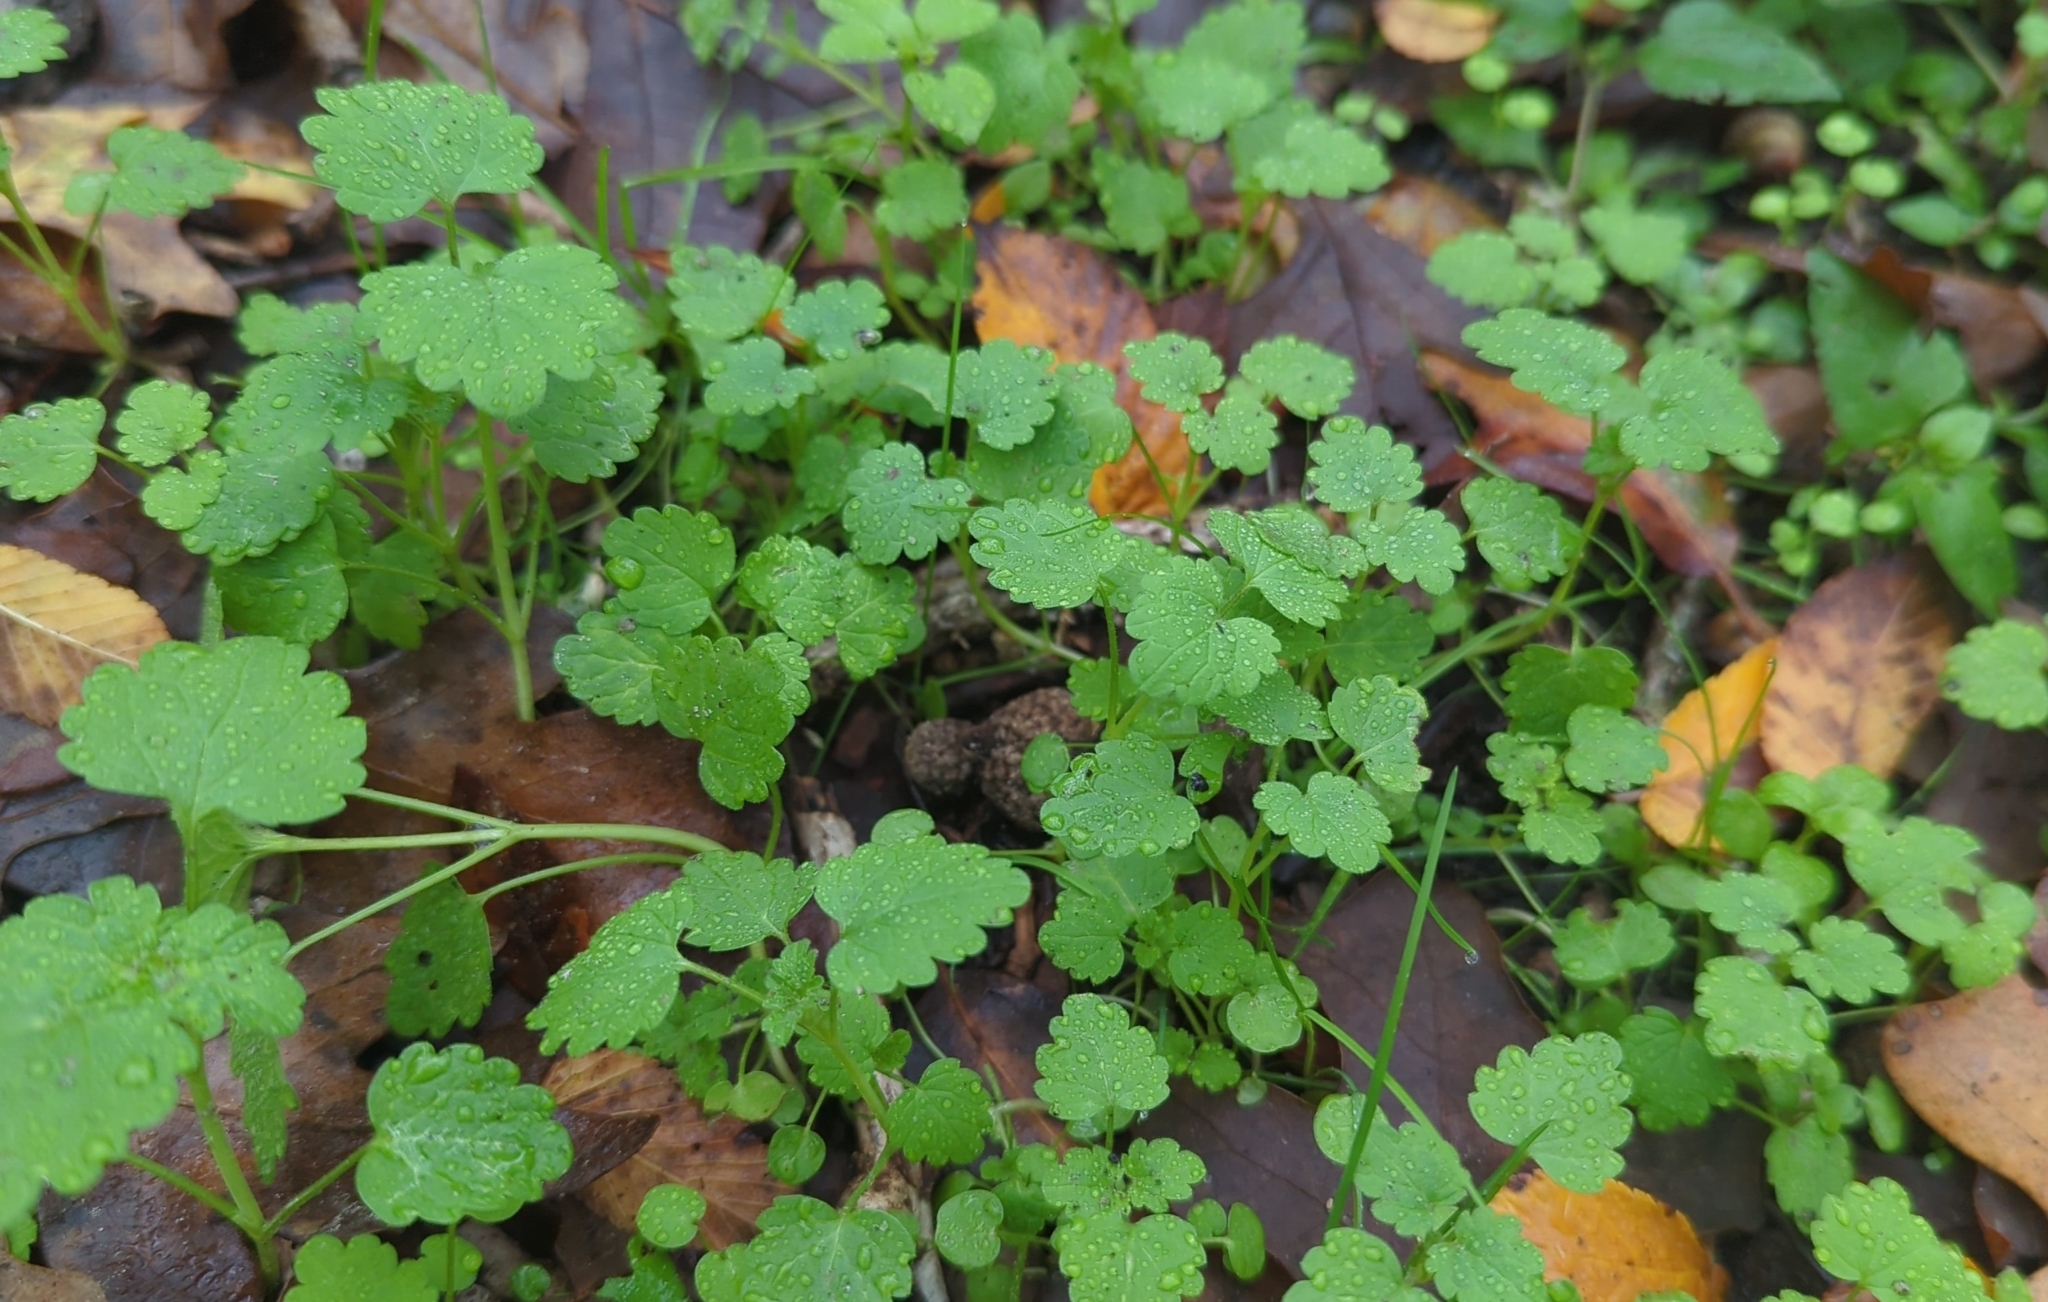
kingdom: Plantae
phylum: Tracheophyta
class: Magnoliopsida
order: Lamiales
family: Lamiaceae
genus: Lamium
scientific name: Lamium amplexicaule
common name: Henbit dead-nettle
